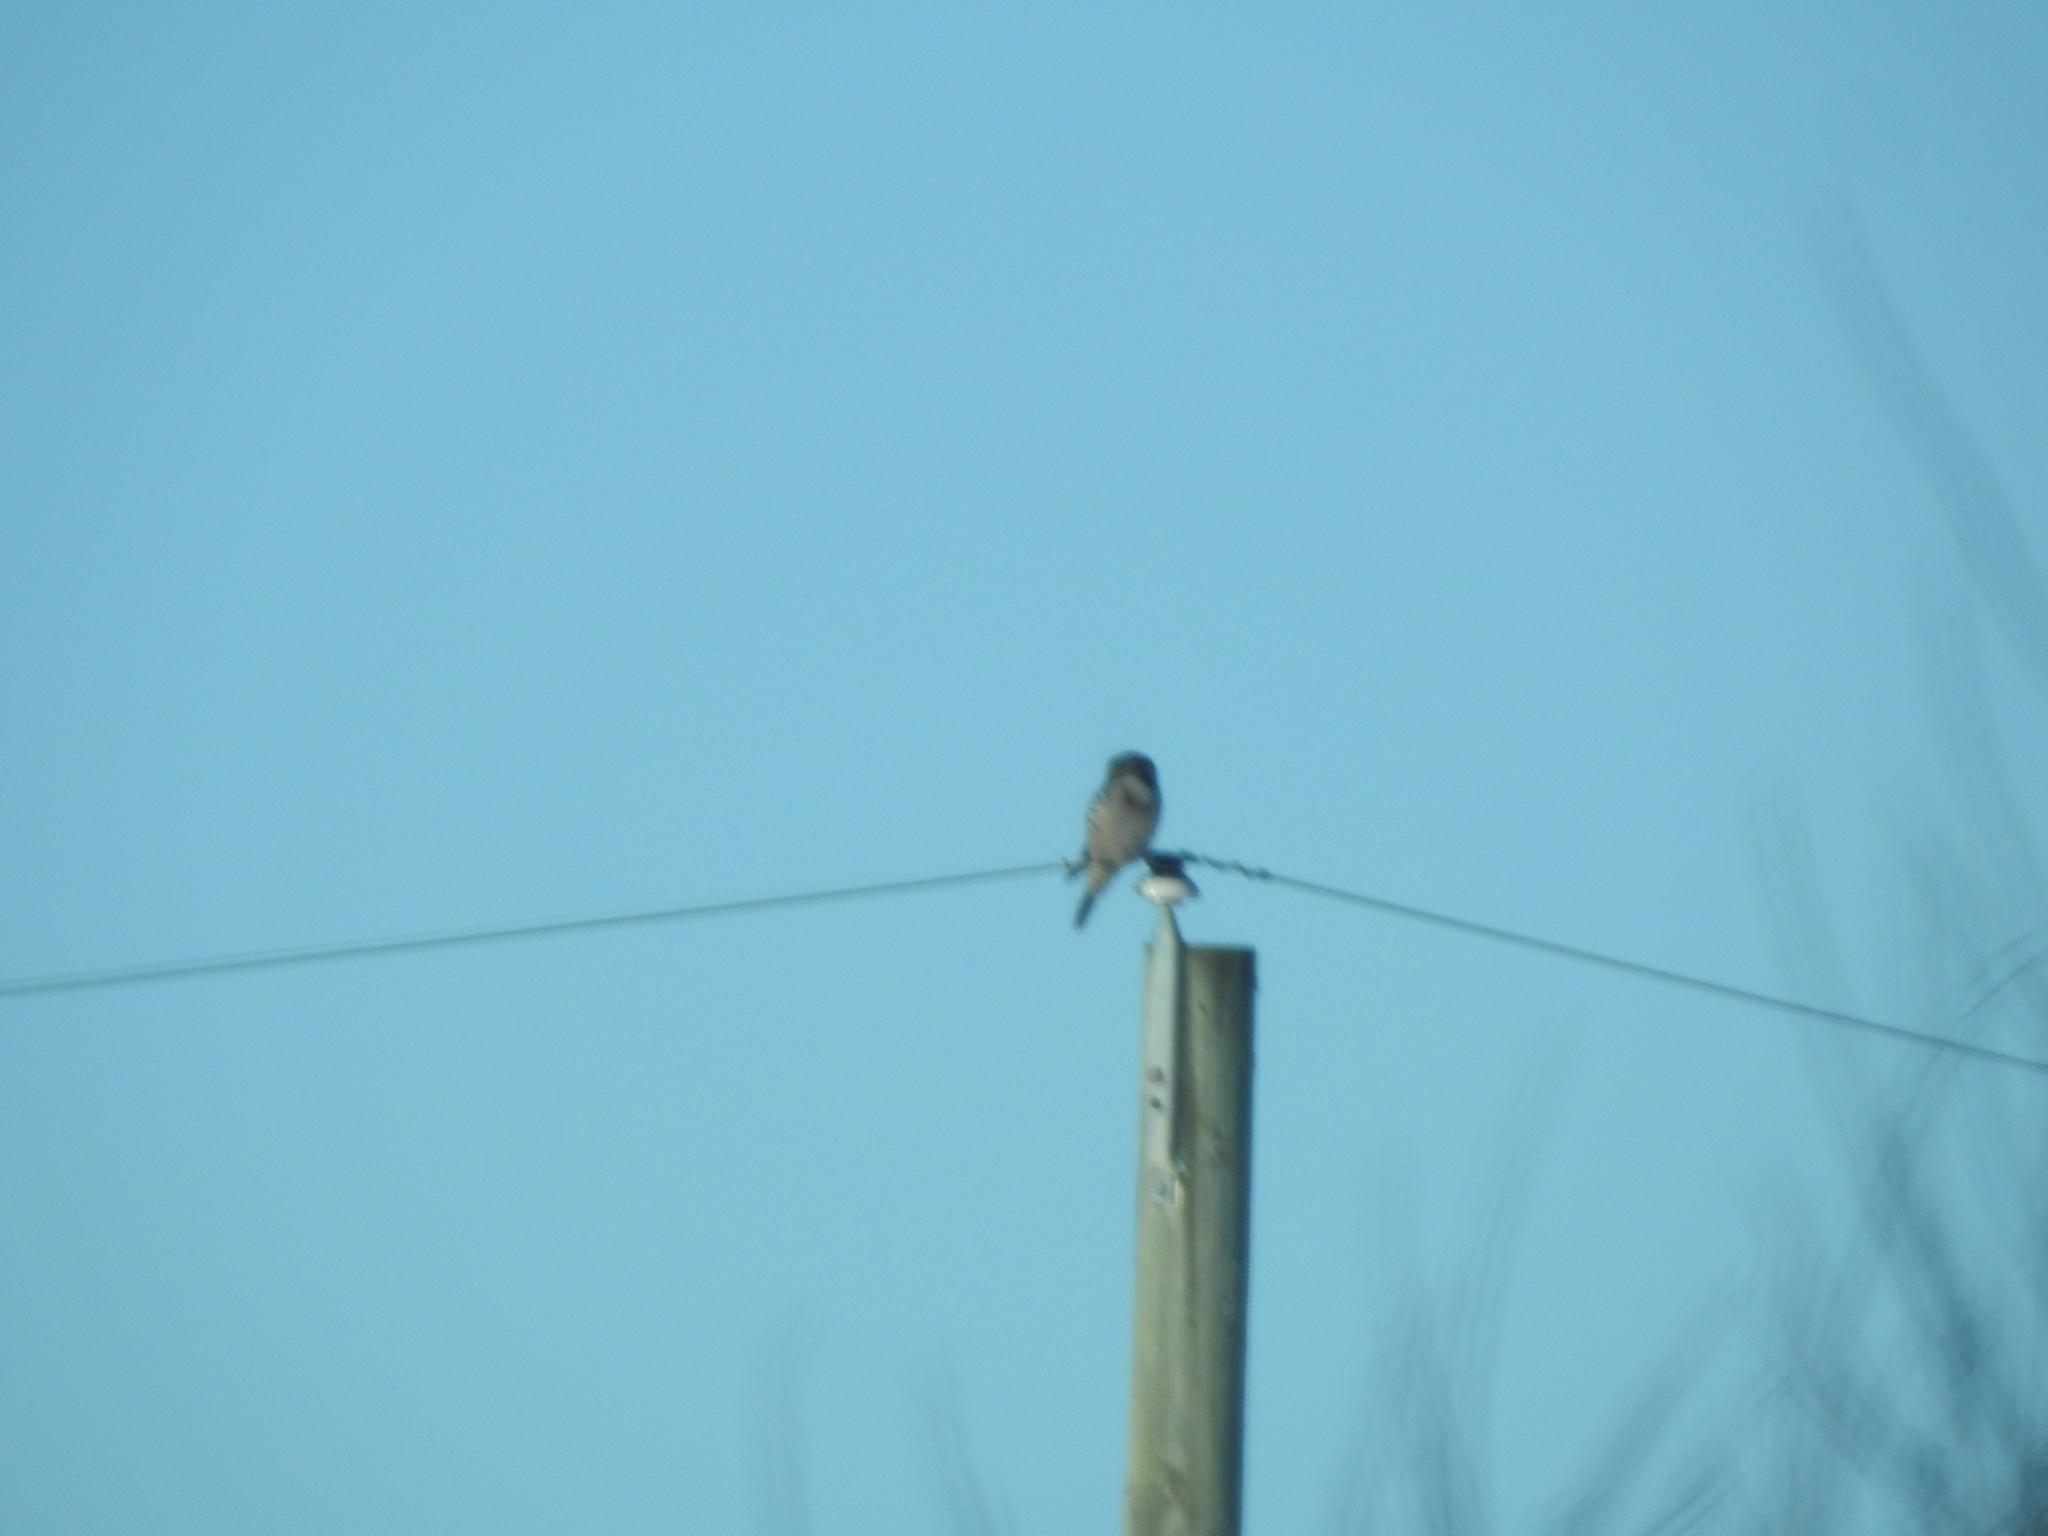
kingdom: Animalia
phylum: Chordata
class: Aves
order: Strigiformes
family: Strigidae
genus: Surnia
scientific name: Surnia ulula
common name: Northern hawk-owl
